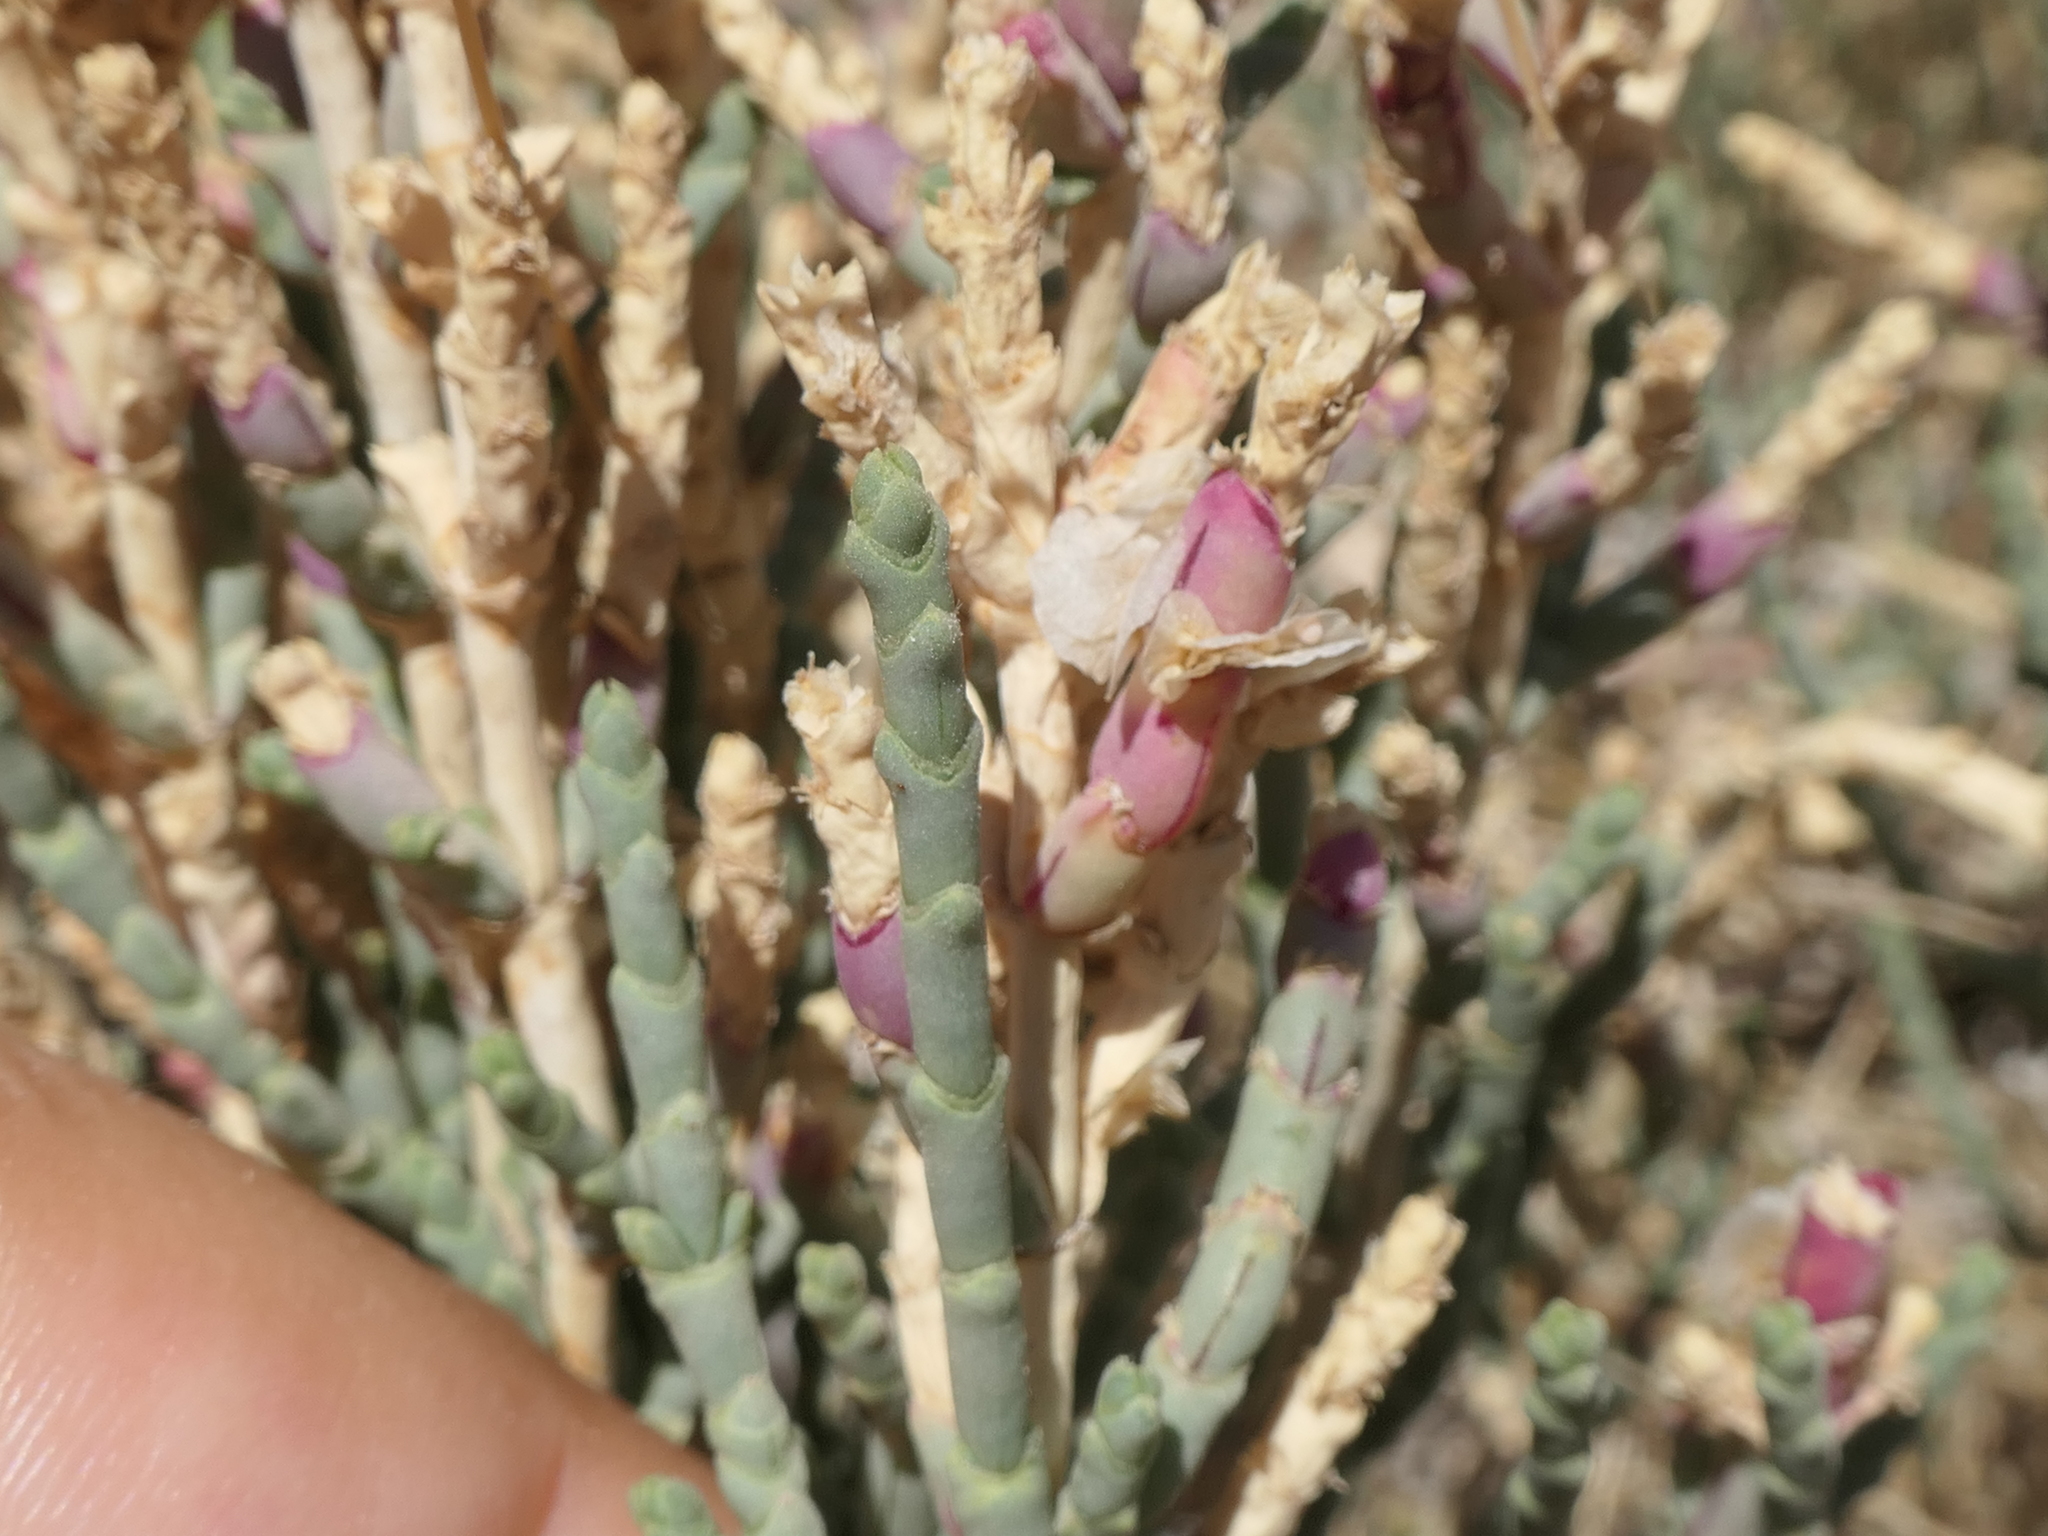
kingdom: Plantae
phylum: Tracheophyta
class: Magnoliopsida
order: Caryophyllales
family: Amaranthaceae
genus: Anabasis
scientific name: Anabasis articulata
